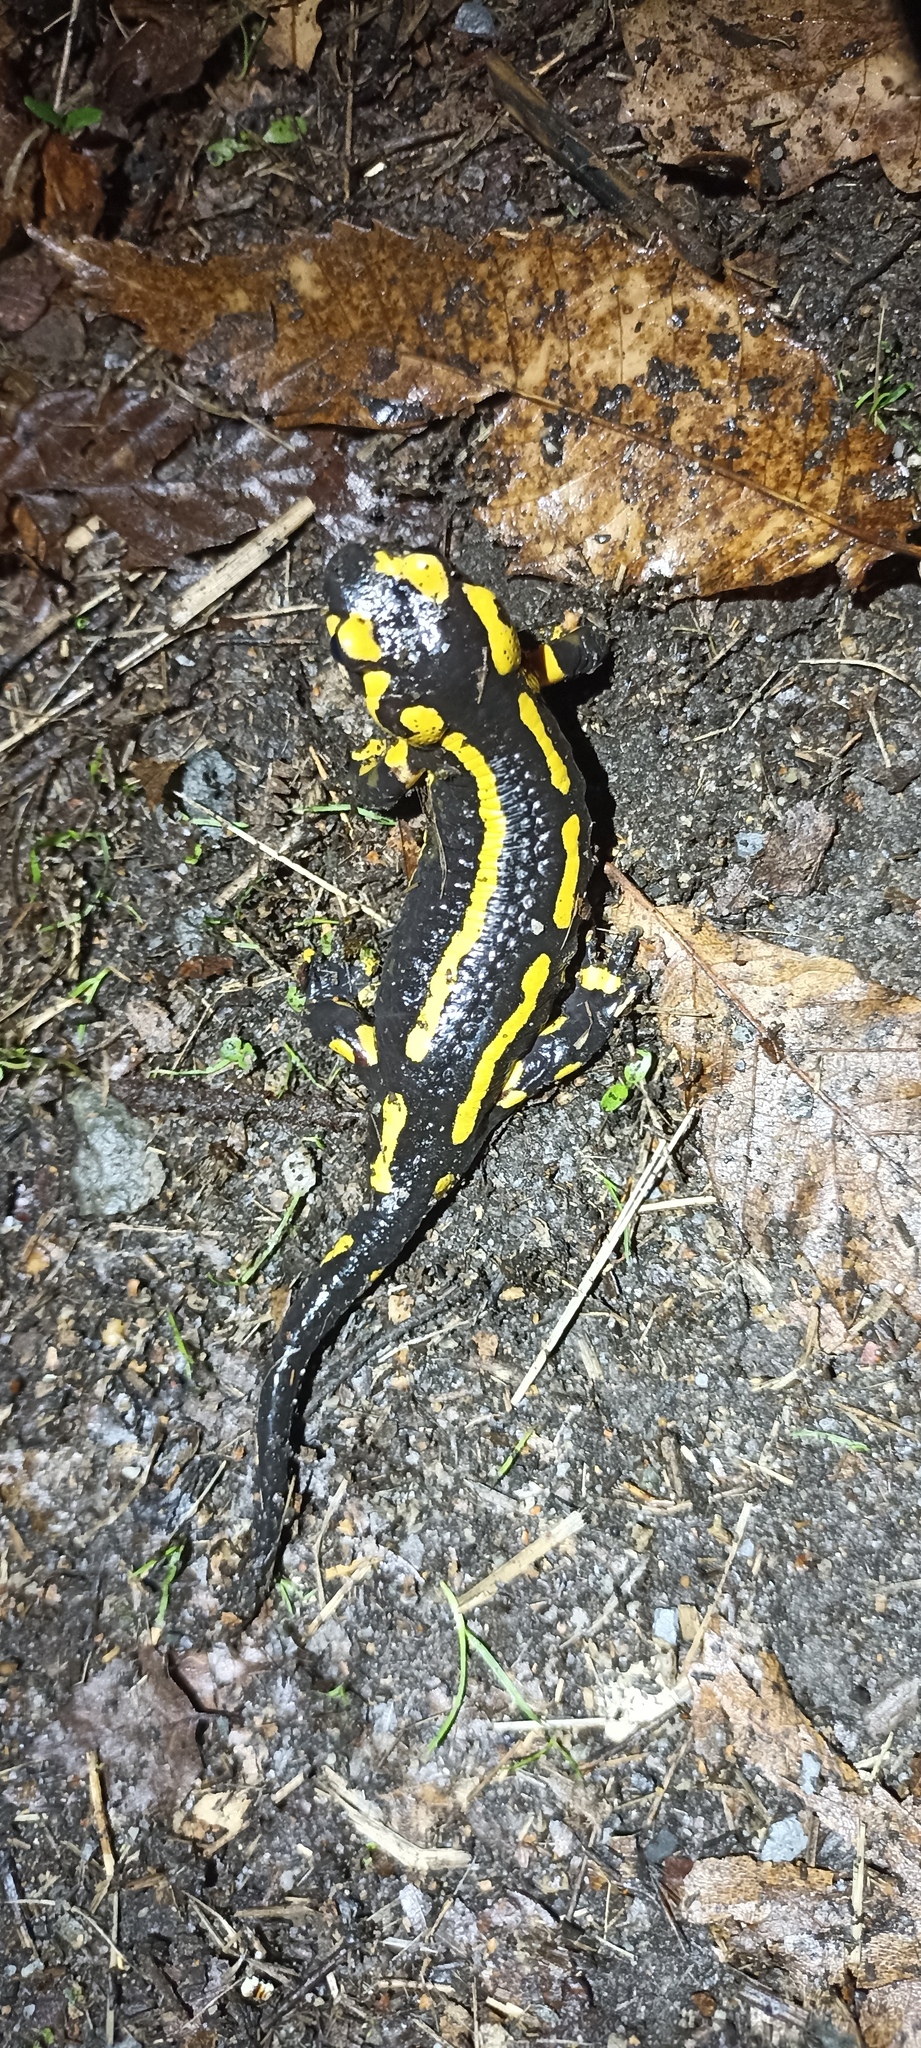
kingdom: Animalia
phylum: Chordata
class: Amphibia
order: Caudata
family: Salamandridae
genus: Salamandra
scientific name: Salamandra salamandra
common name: Fire salamander
